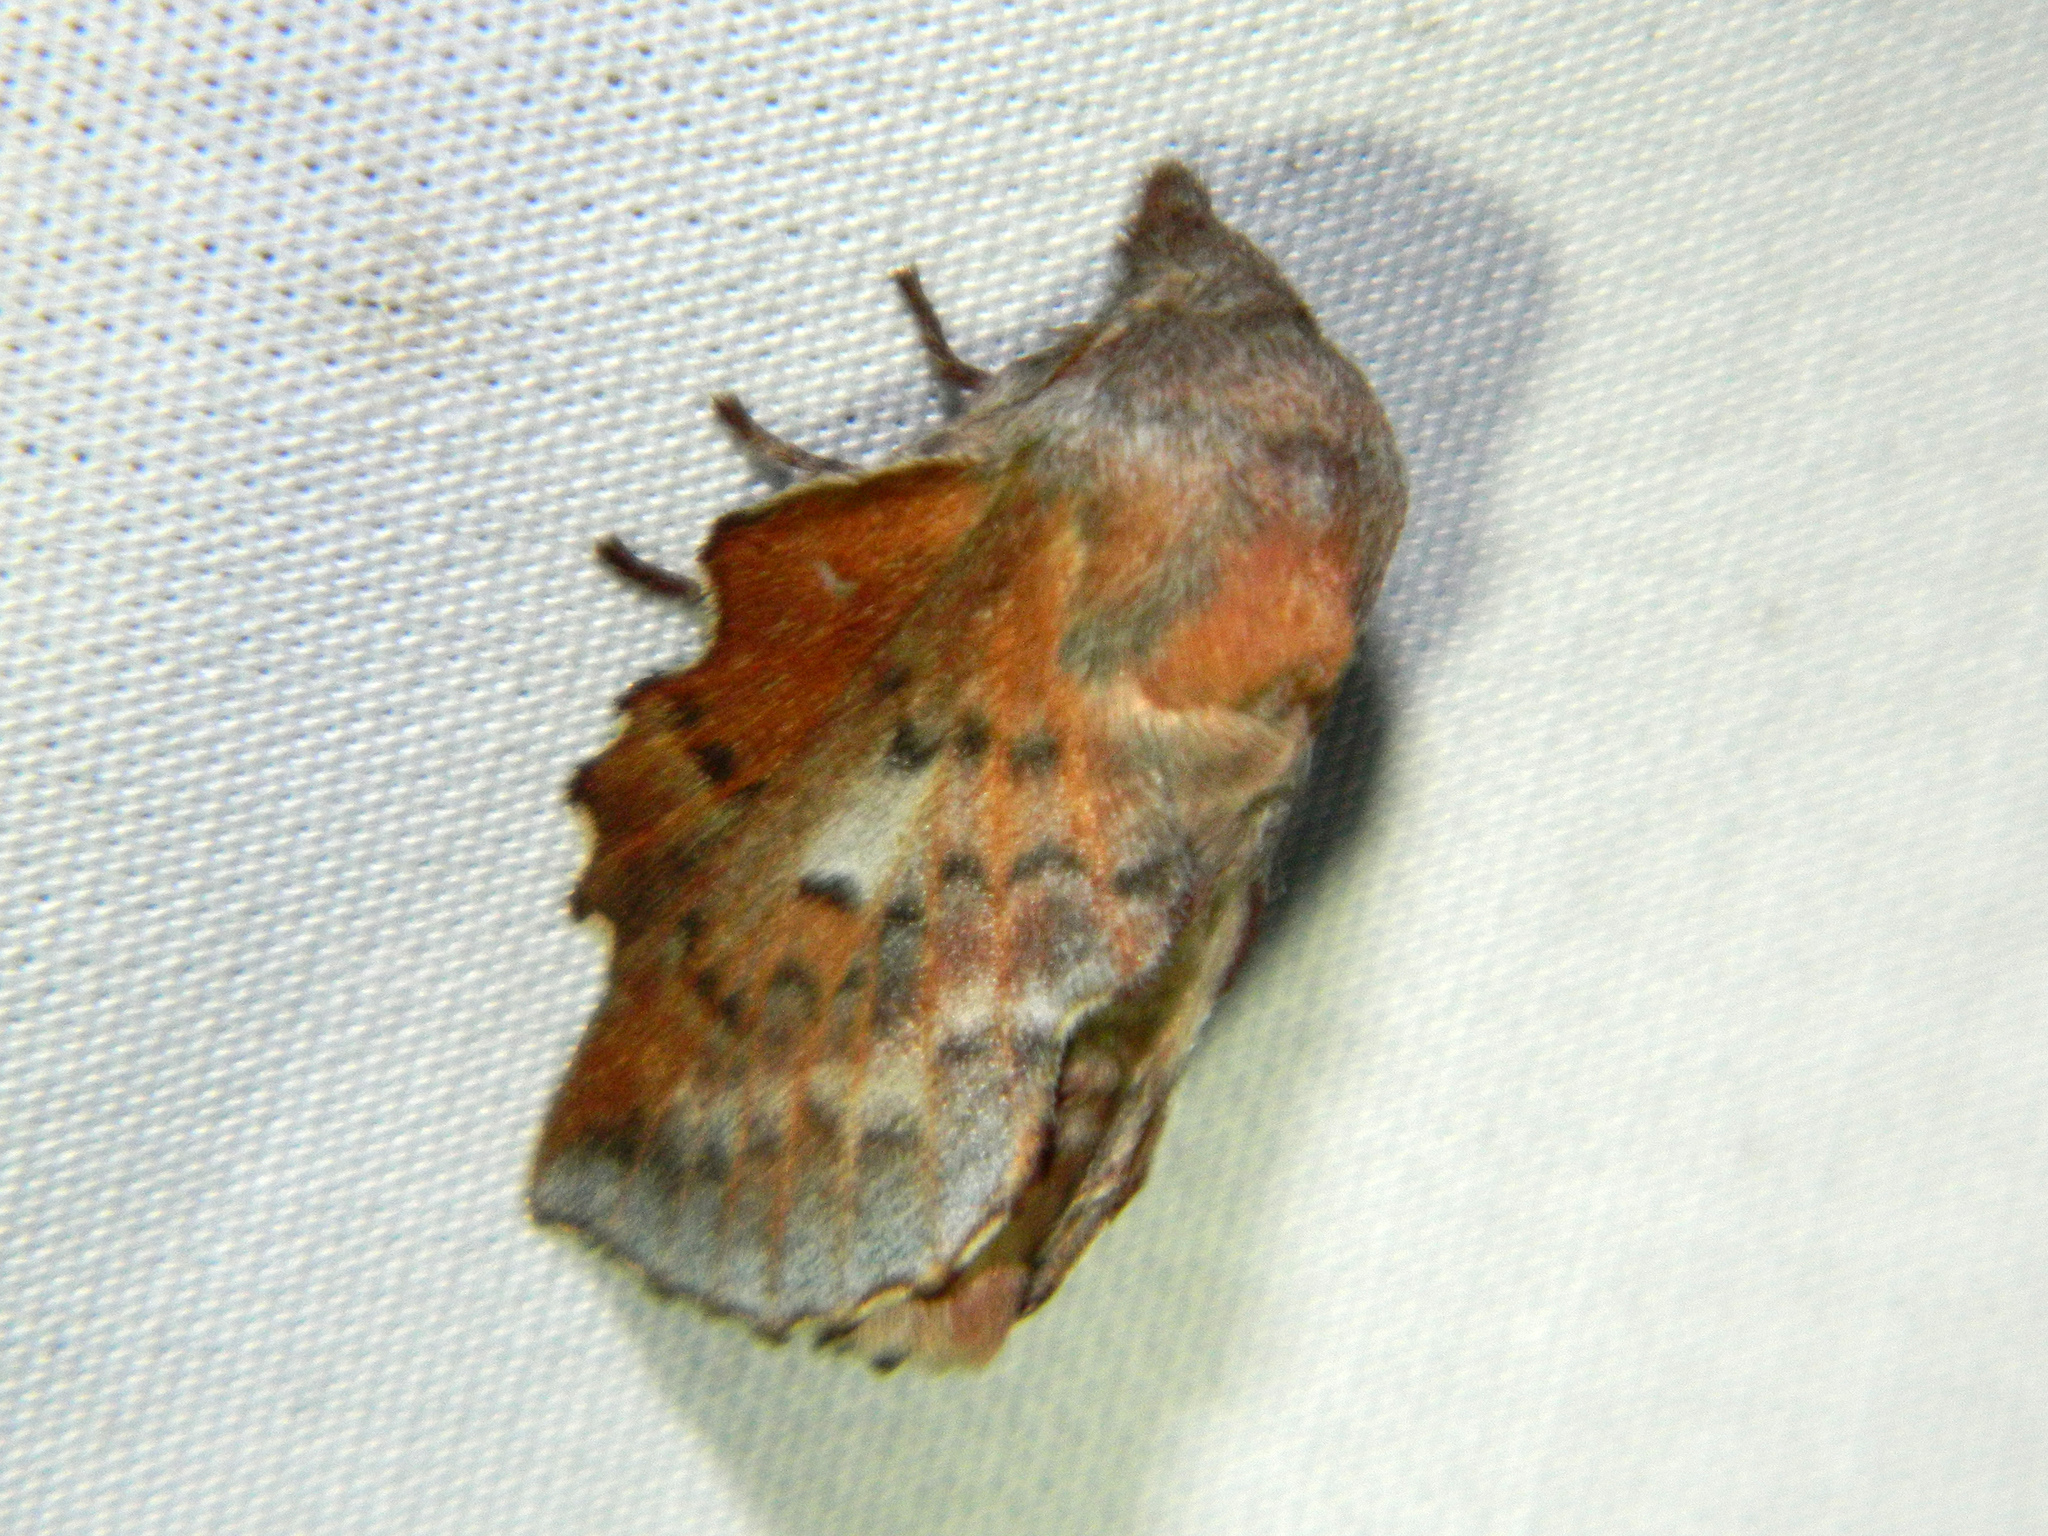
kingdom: Animalia
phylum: Arthropoda
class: Insecta
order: Lepidoptera
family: Lasiocampidae
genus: Phyllodesma
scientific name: Phyllodesma americana
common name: American lappet moth
